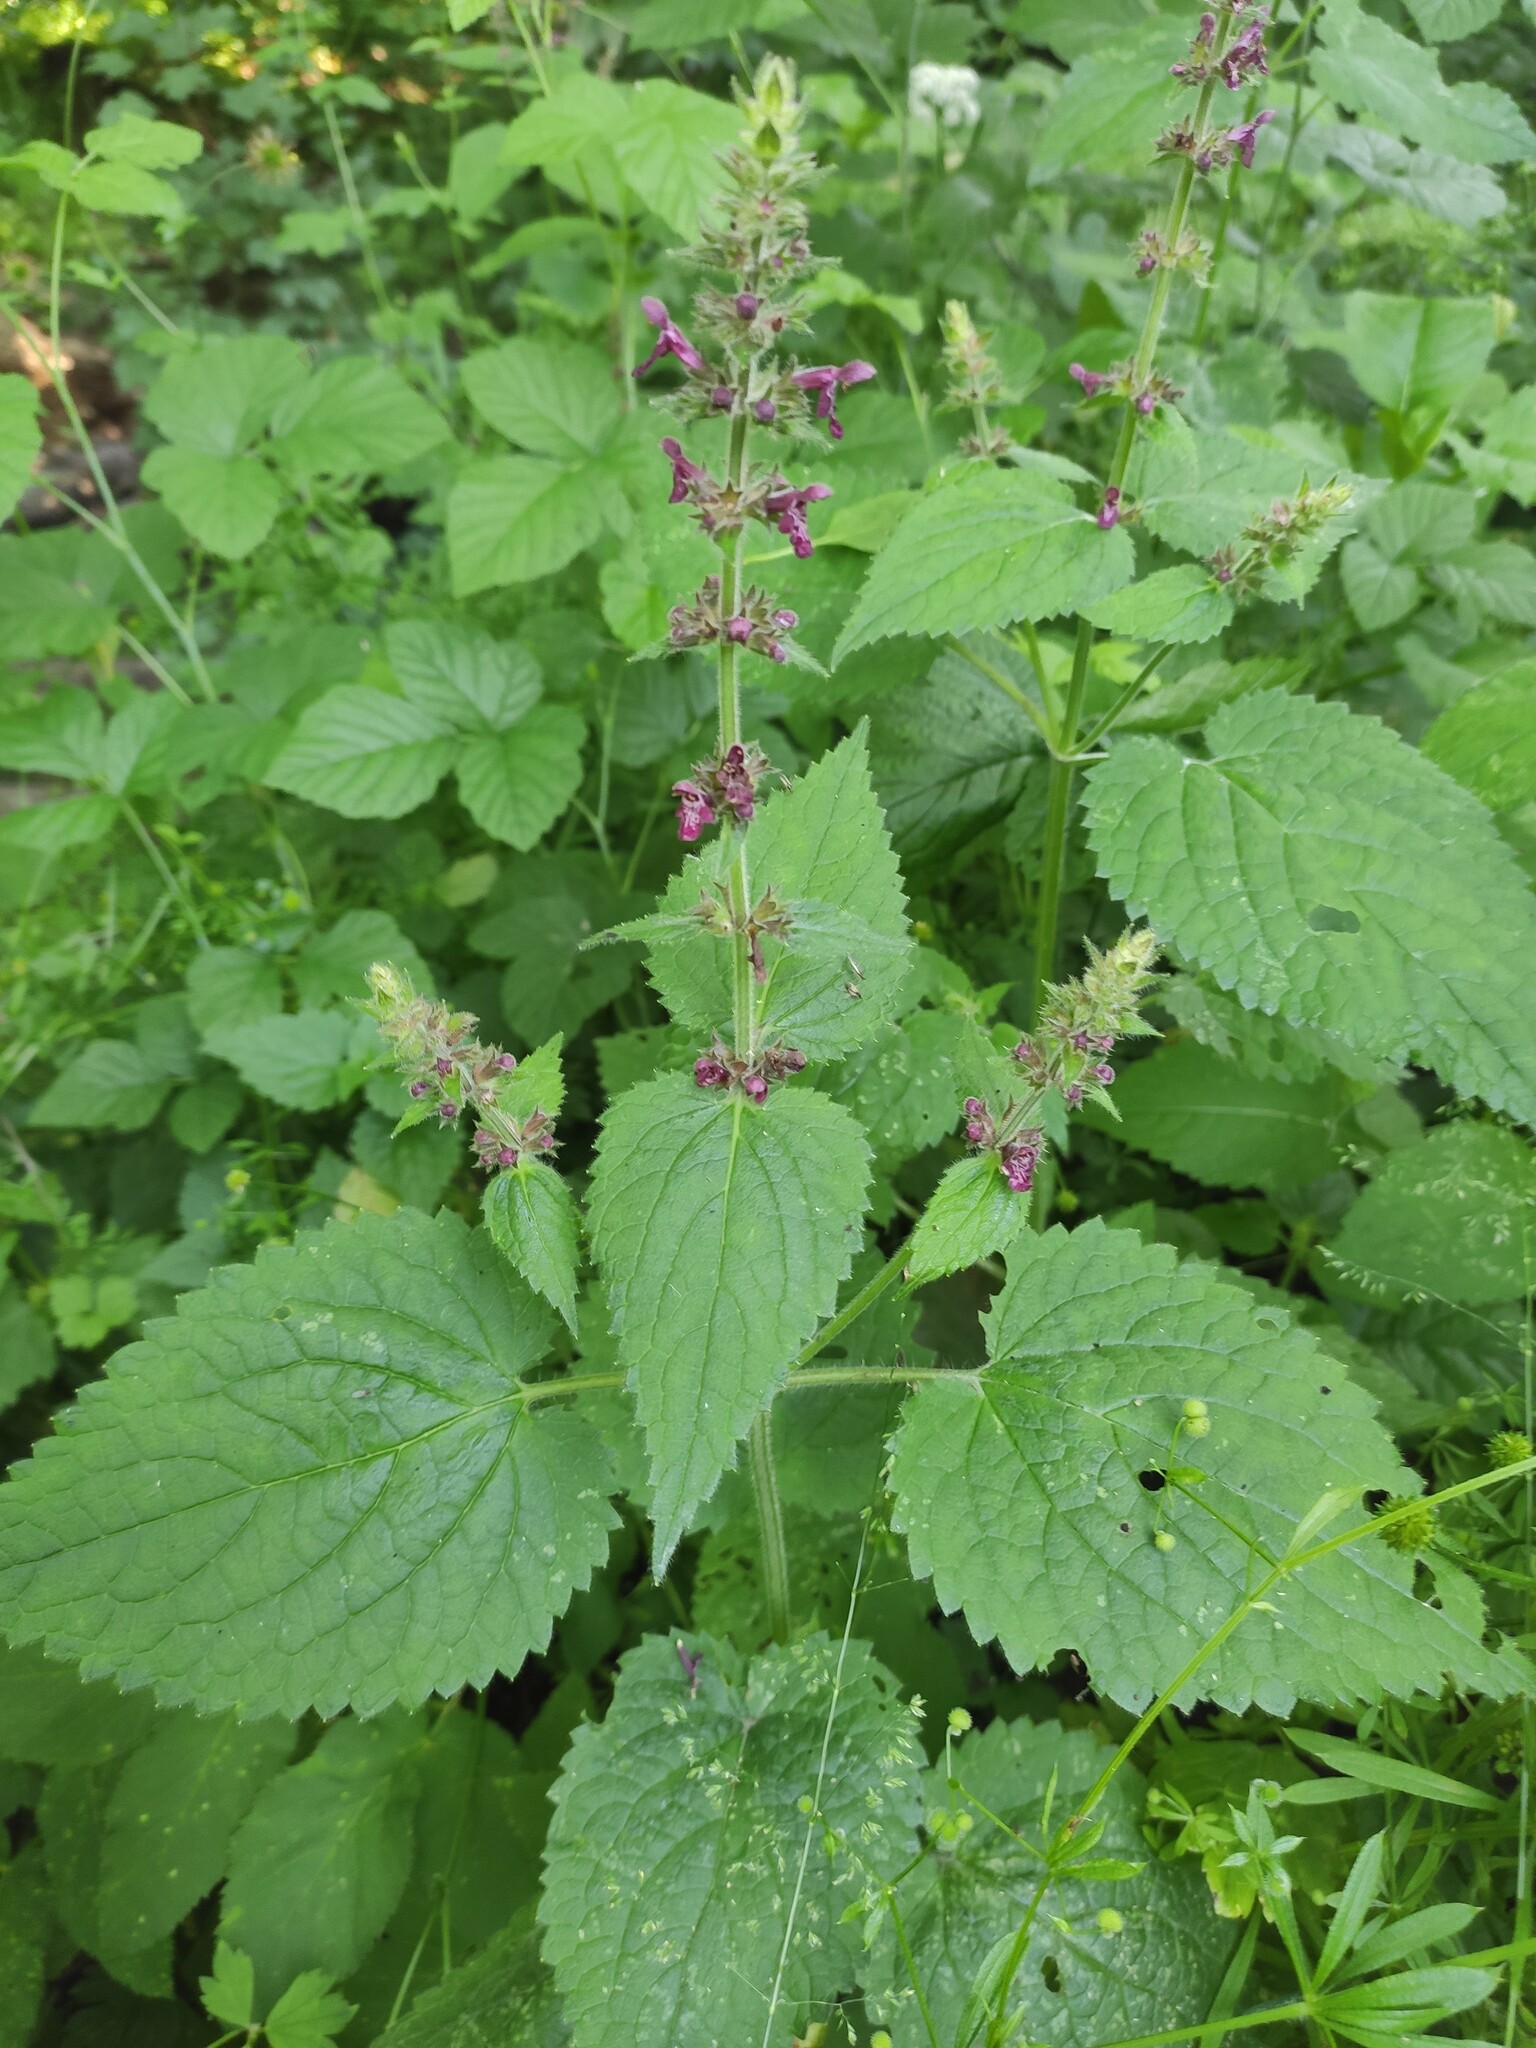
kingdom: Plantae
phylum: Tracheophyta
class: Magnoliopsida
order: Lamiales
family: Lamiaceae
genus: Stachys
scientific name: Stachys sylvatica
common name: Hedge woundwort
